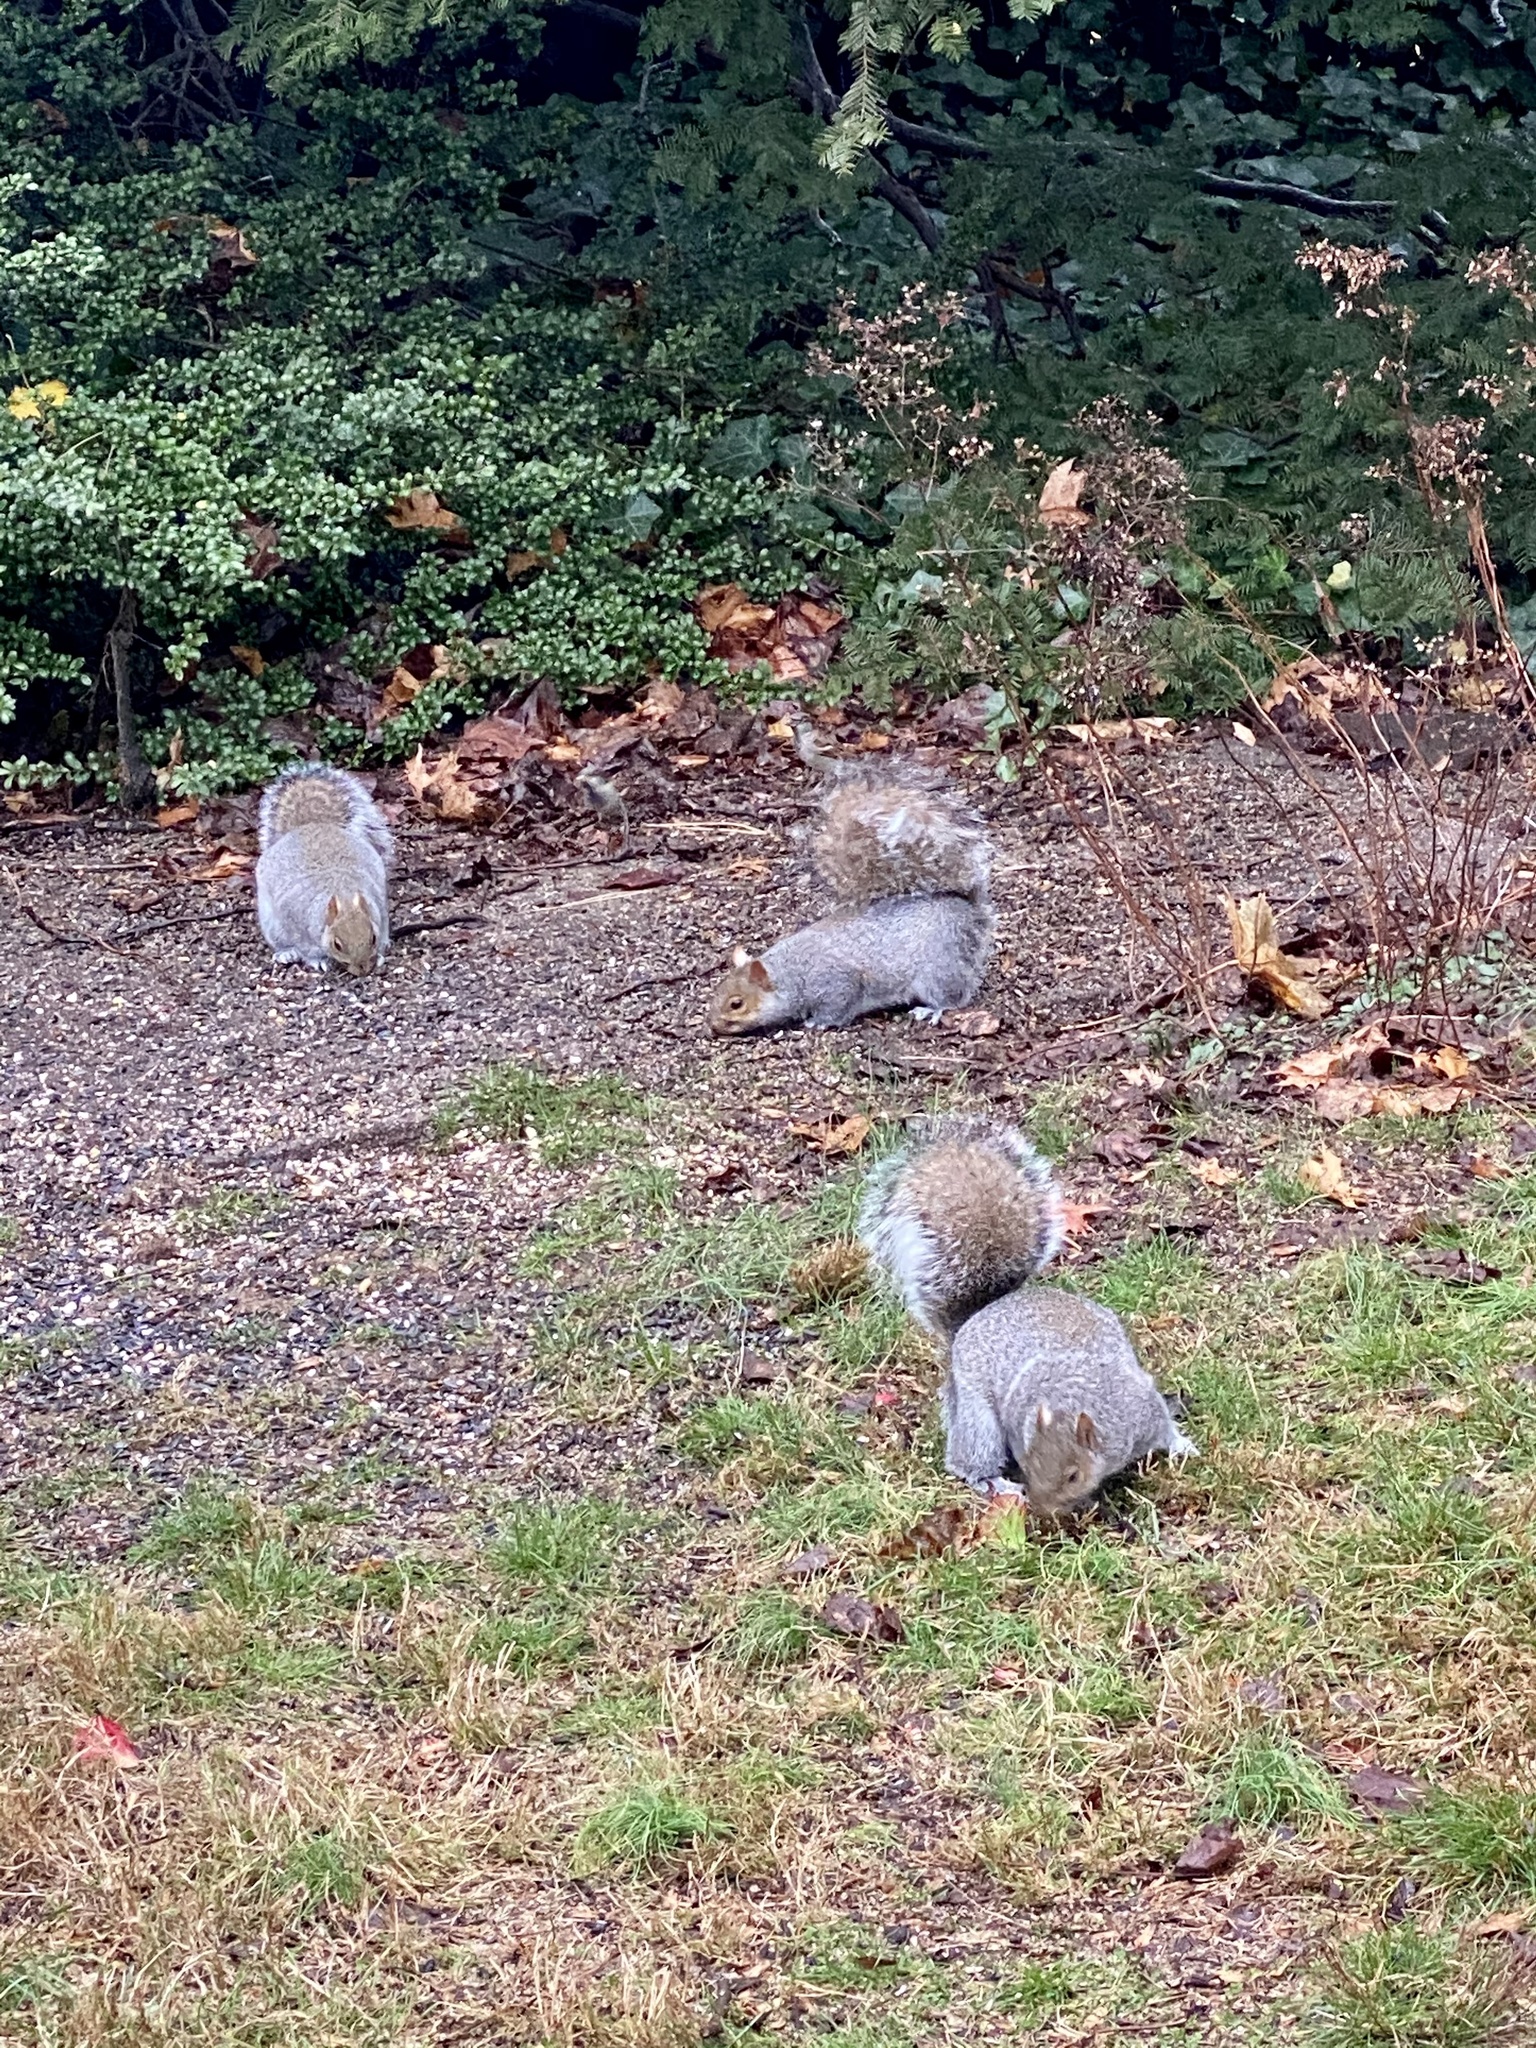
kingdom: Animalia
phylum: Chordata
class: Mammalia
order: Rodentia
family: Sciuridae
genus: Sciurus
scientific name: Sciurus carolinensis
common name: Eastern gray squirrel
